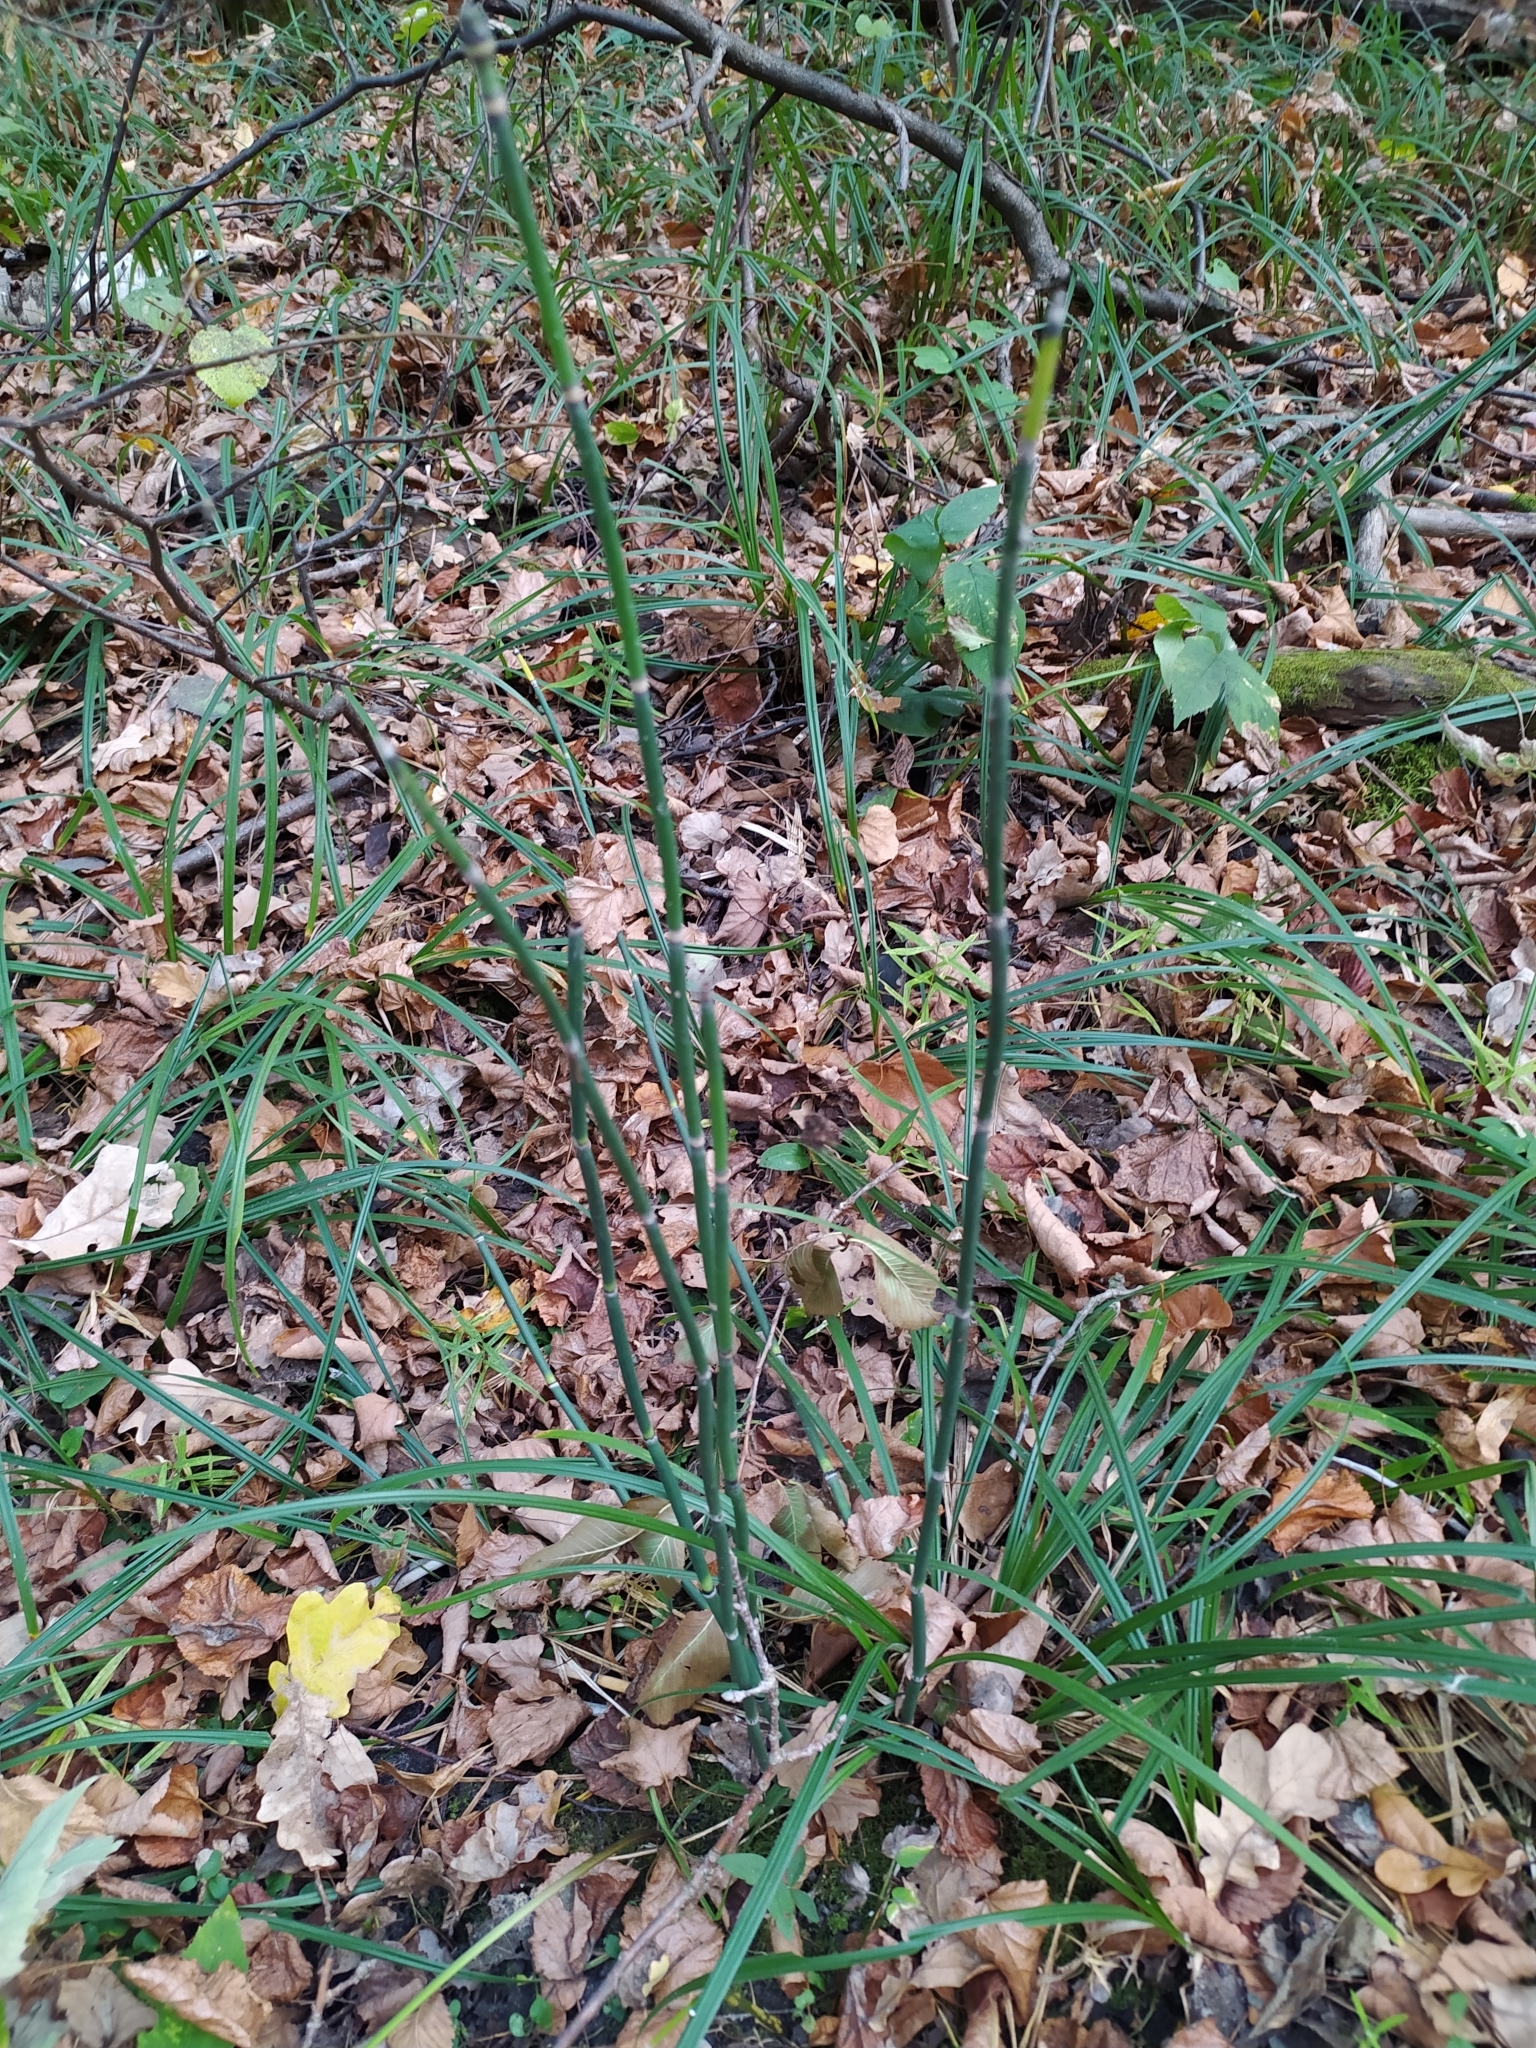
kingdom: Plantae
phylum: Tracheophyta
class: Polypodiopsida
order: Equisetales
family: Equisetaceae
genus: Equisetum
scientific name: Equisetum hyemale
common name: Rough horsetail
